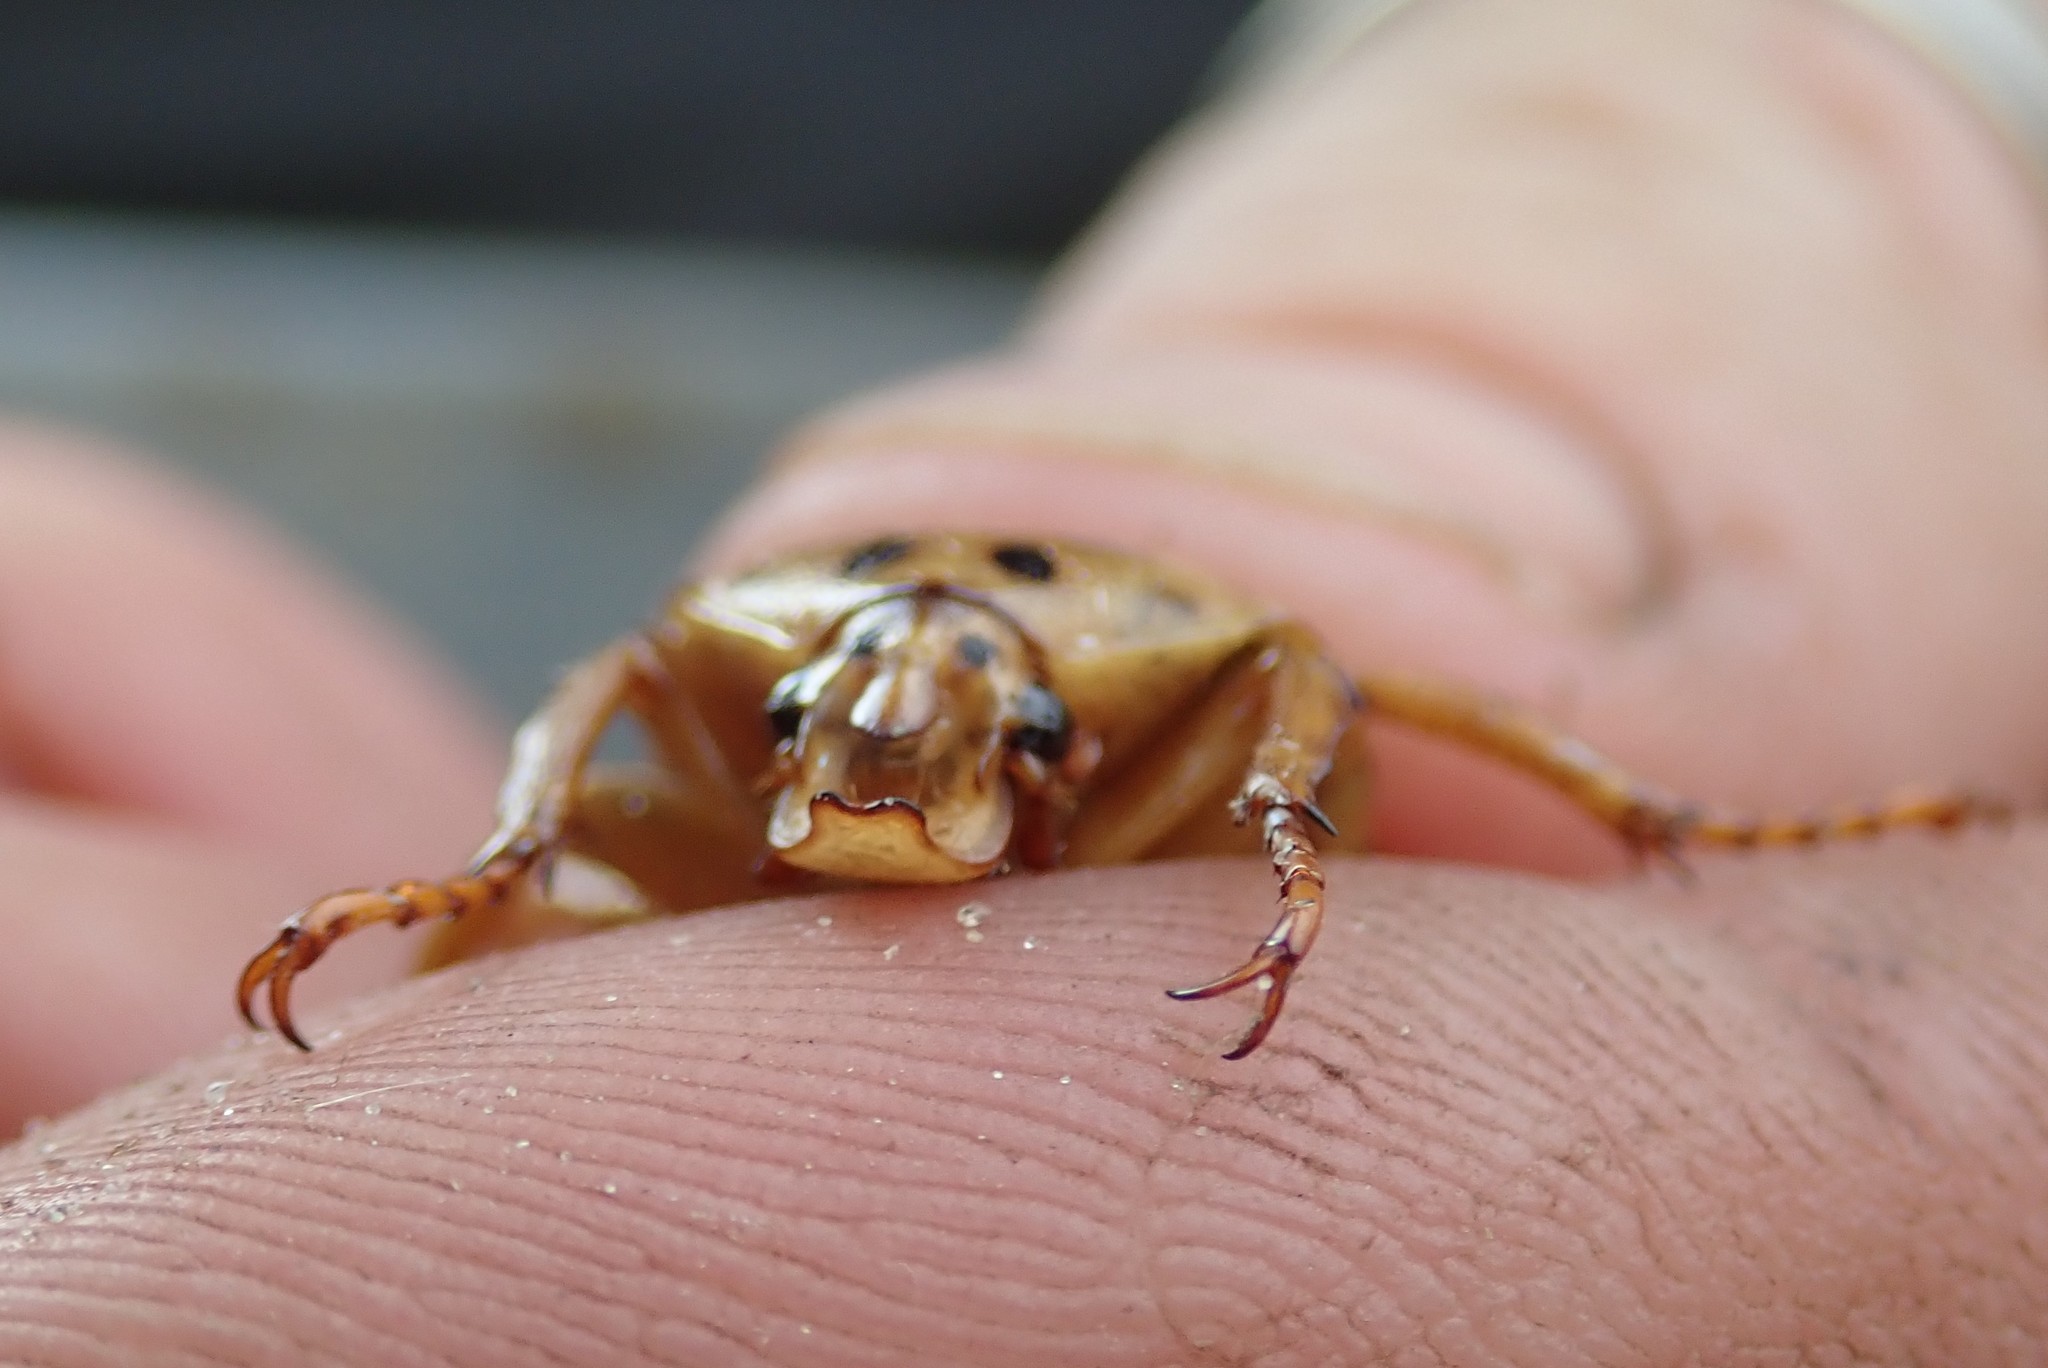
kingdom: Animalia
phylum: Arthropoda
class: Insecta
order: Coleoptera
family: Scarabaeidae
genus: Anisorrhina
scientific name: Anisorrhina flavomaculata
